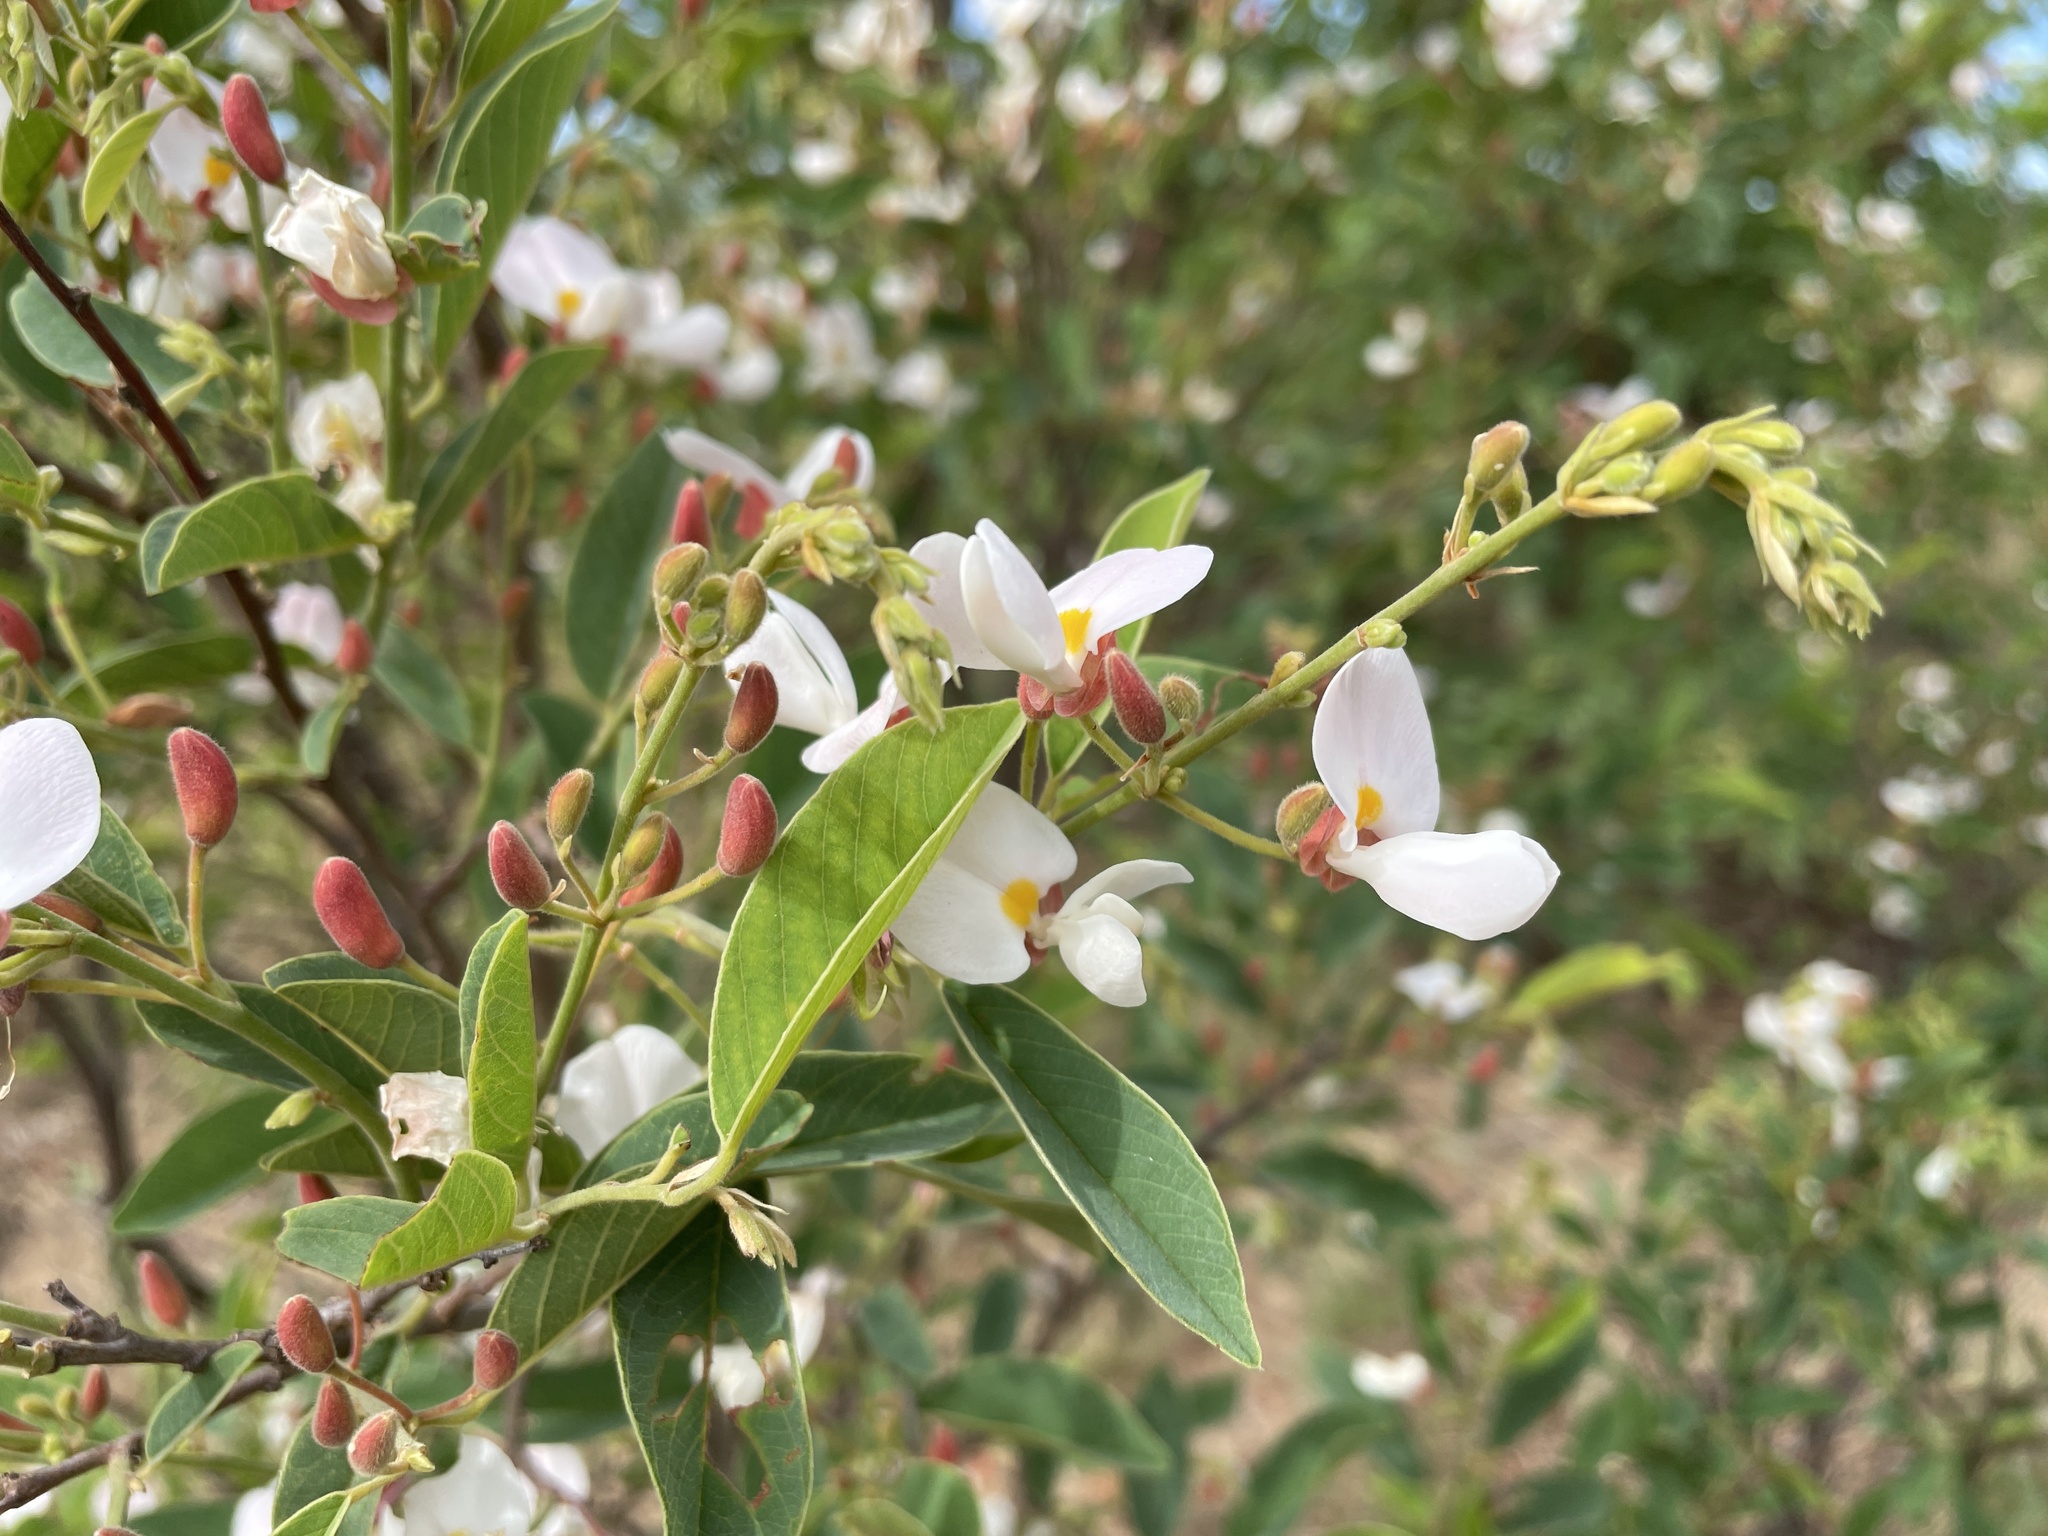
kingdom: Plantae
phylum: Tracheophyta
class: Magnoliopsida
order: Fabales
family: Fabaceae
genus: Baphia
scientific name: Baphia massaiensis
